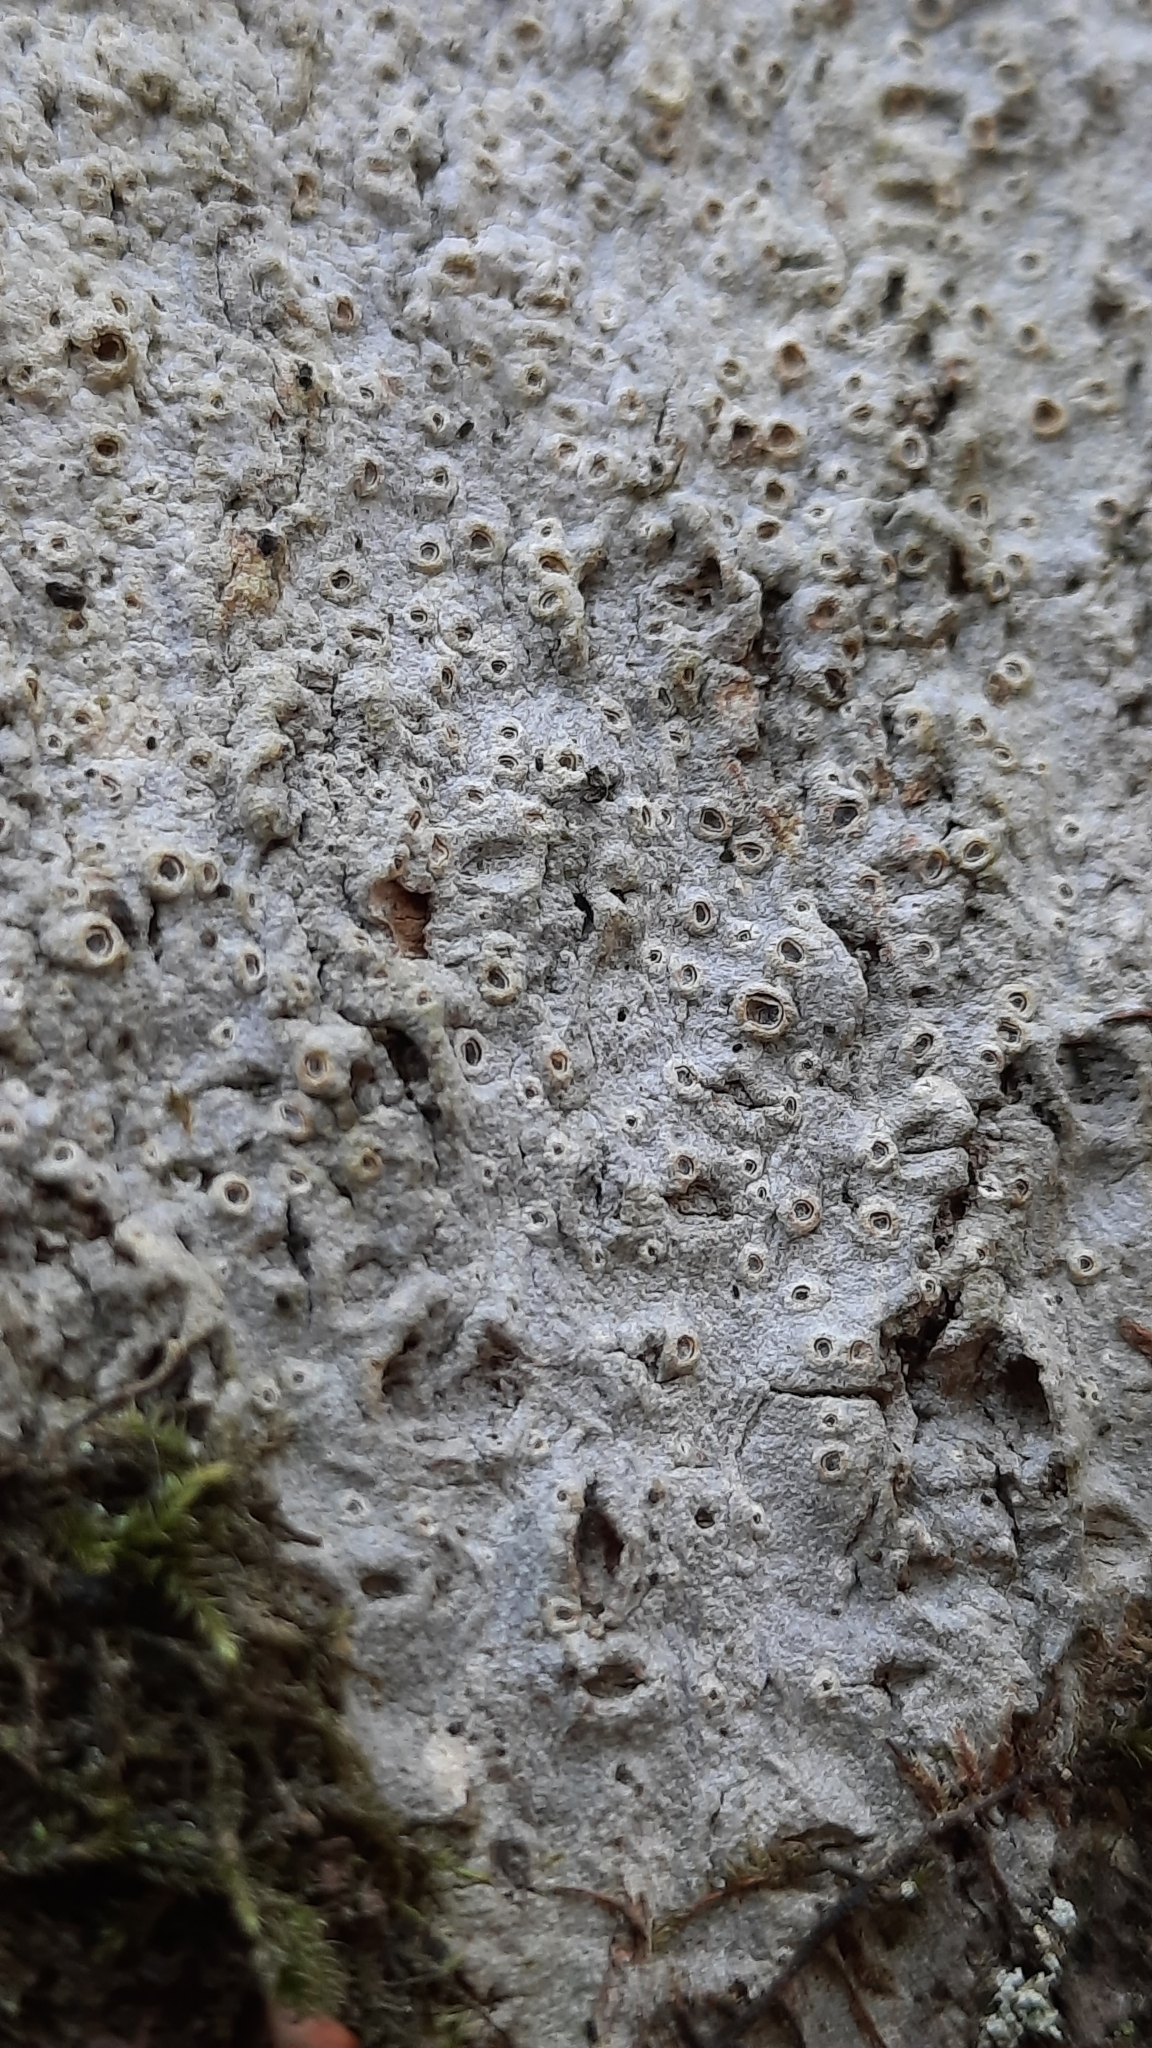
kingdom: Fungi
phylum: Ascomycota
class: Lecanoromycetes
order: Ostropales
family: Graphidaceae
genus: Thelotrema
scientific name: Thelotrema lepadinum
